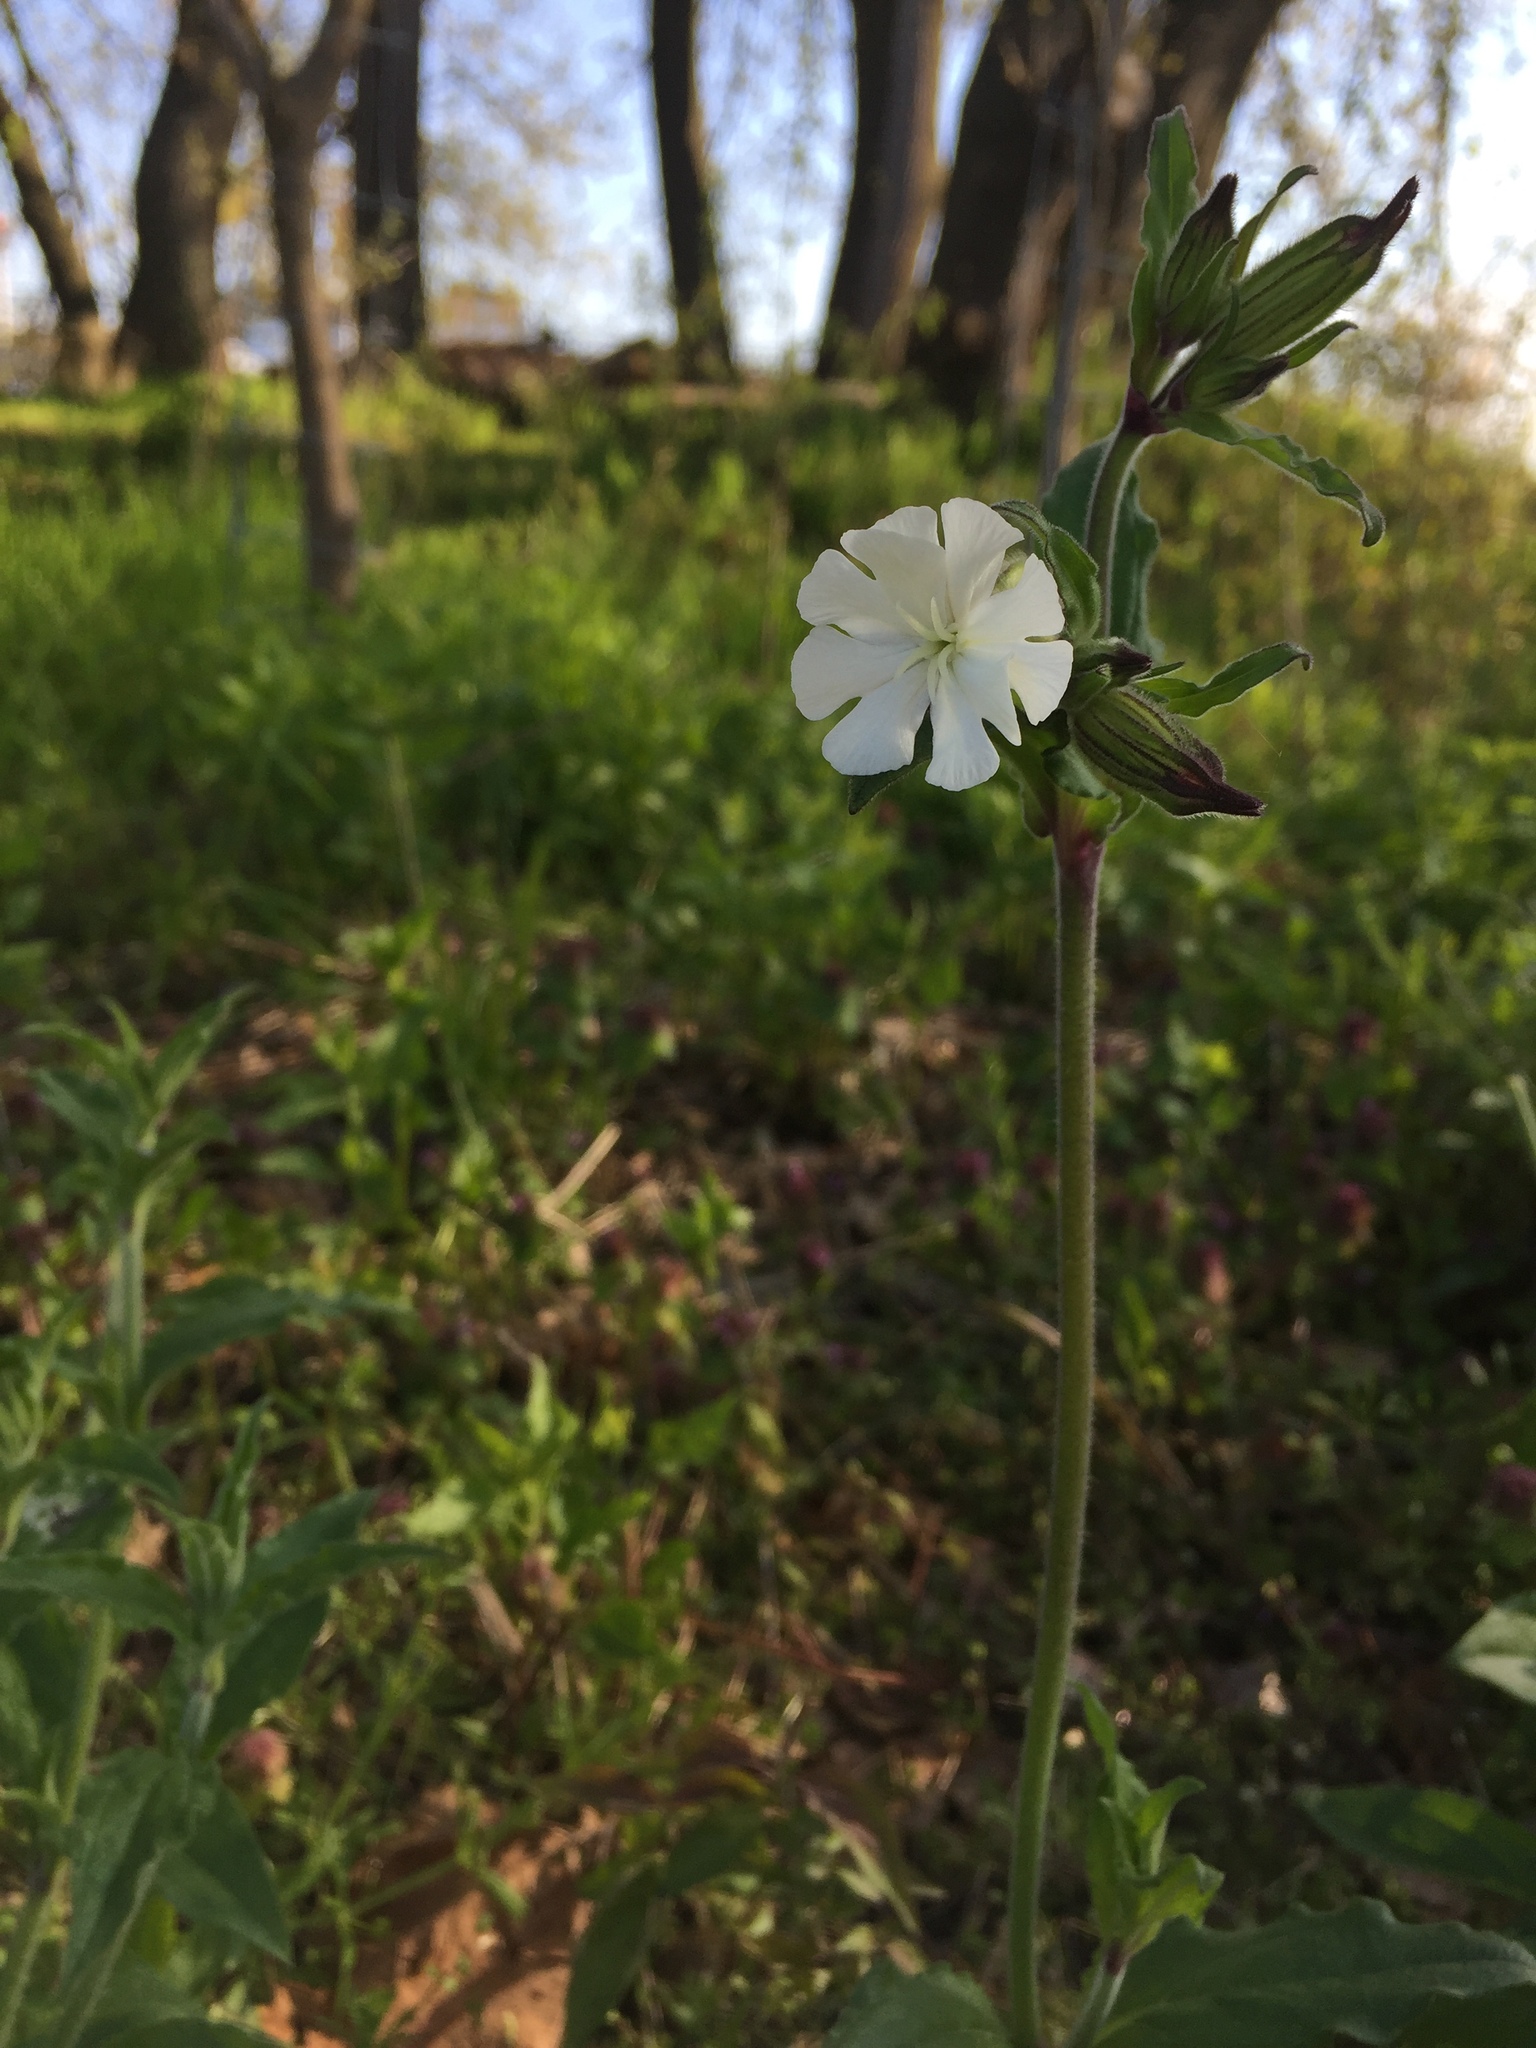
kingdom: Plantae
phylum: Tracheophyta
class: Magnoliopsida
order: Caryophyllales
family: Caryophyllaceae
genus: Silene
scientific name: Silene latifolia
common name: White campion
